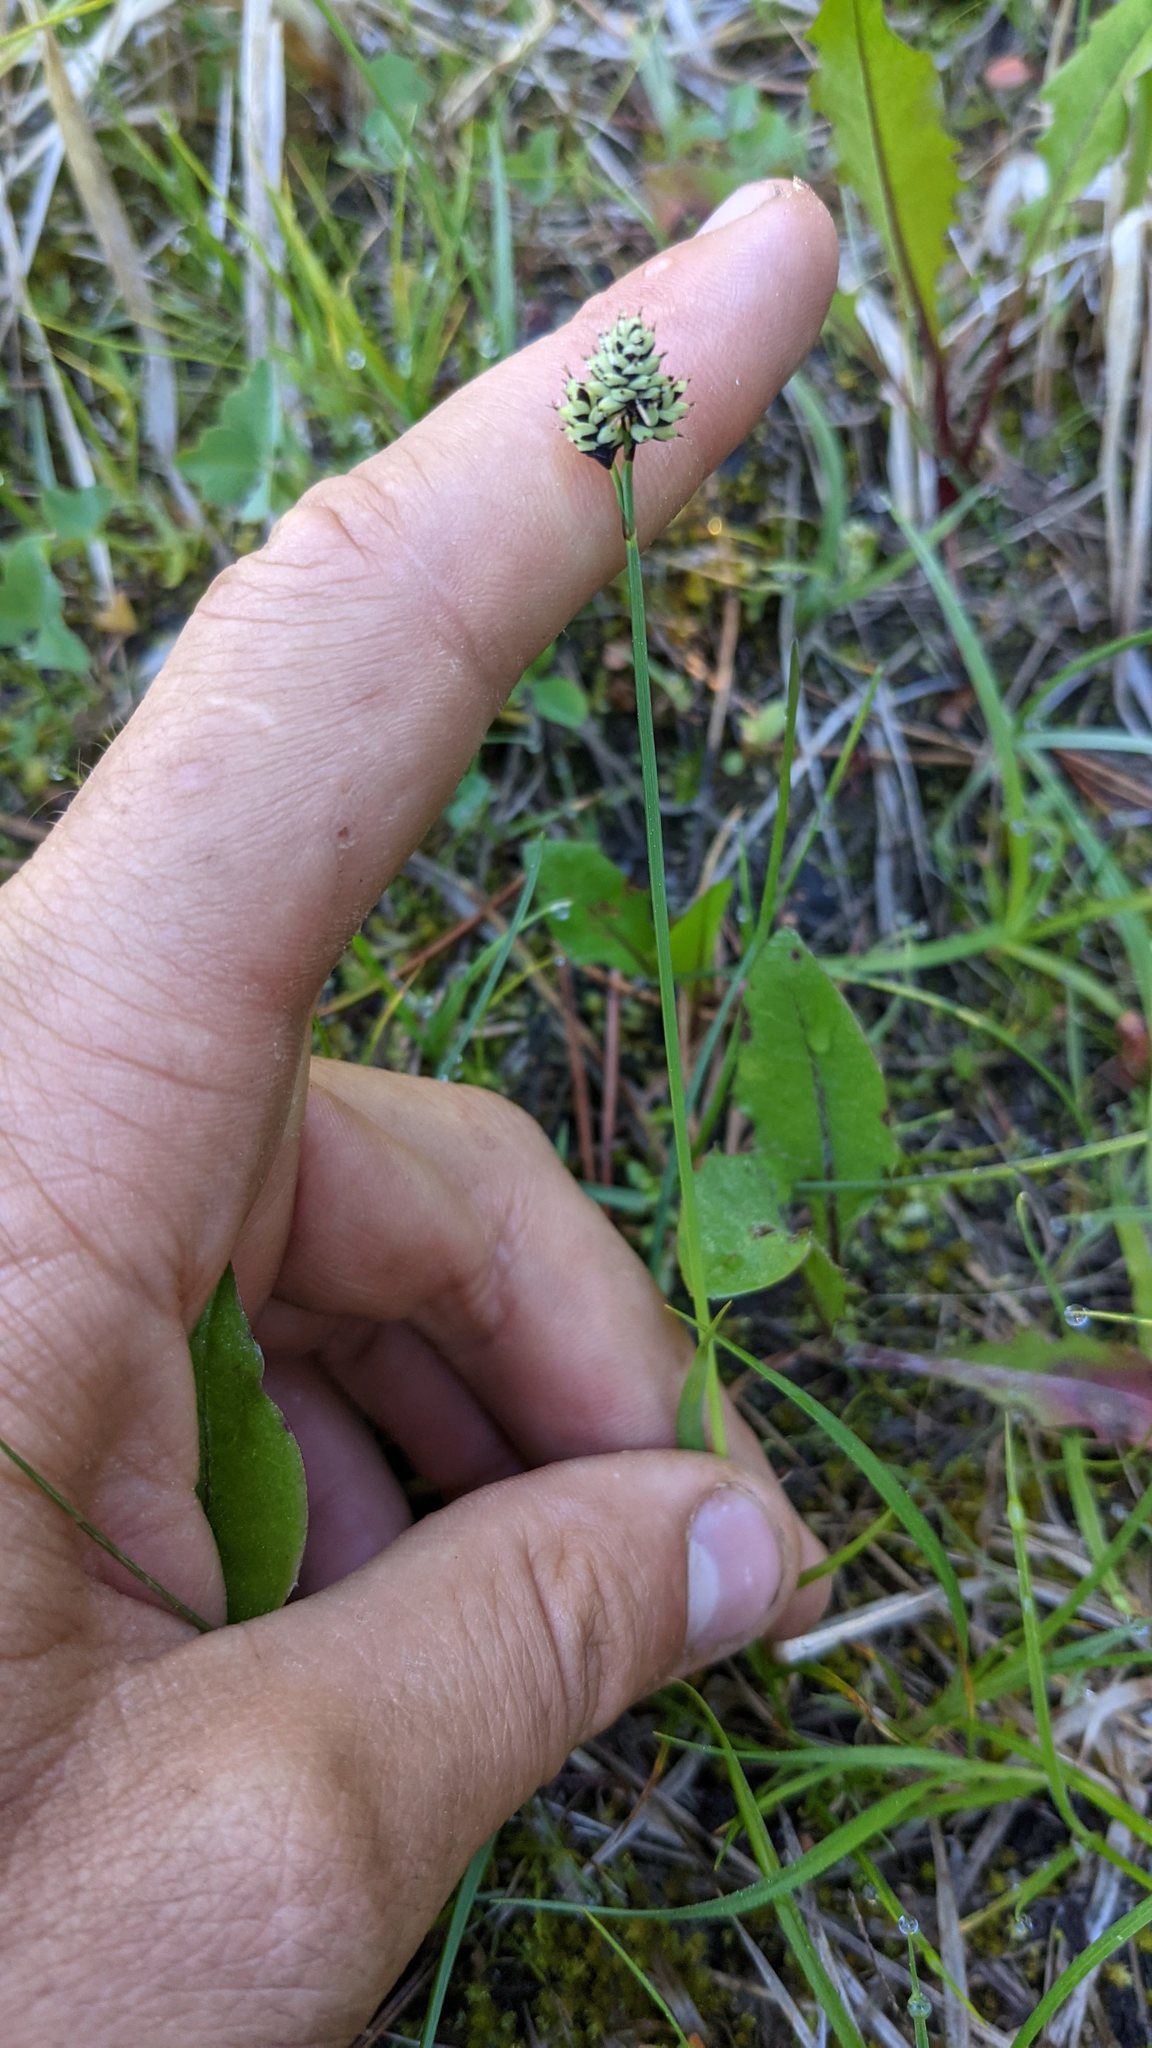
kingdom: Plantae
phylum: Tracheophyta
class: Liliopsida
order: Poales
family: Cyperaceae
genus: Carex
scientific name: Carex media
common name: Alpine sedge
